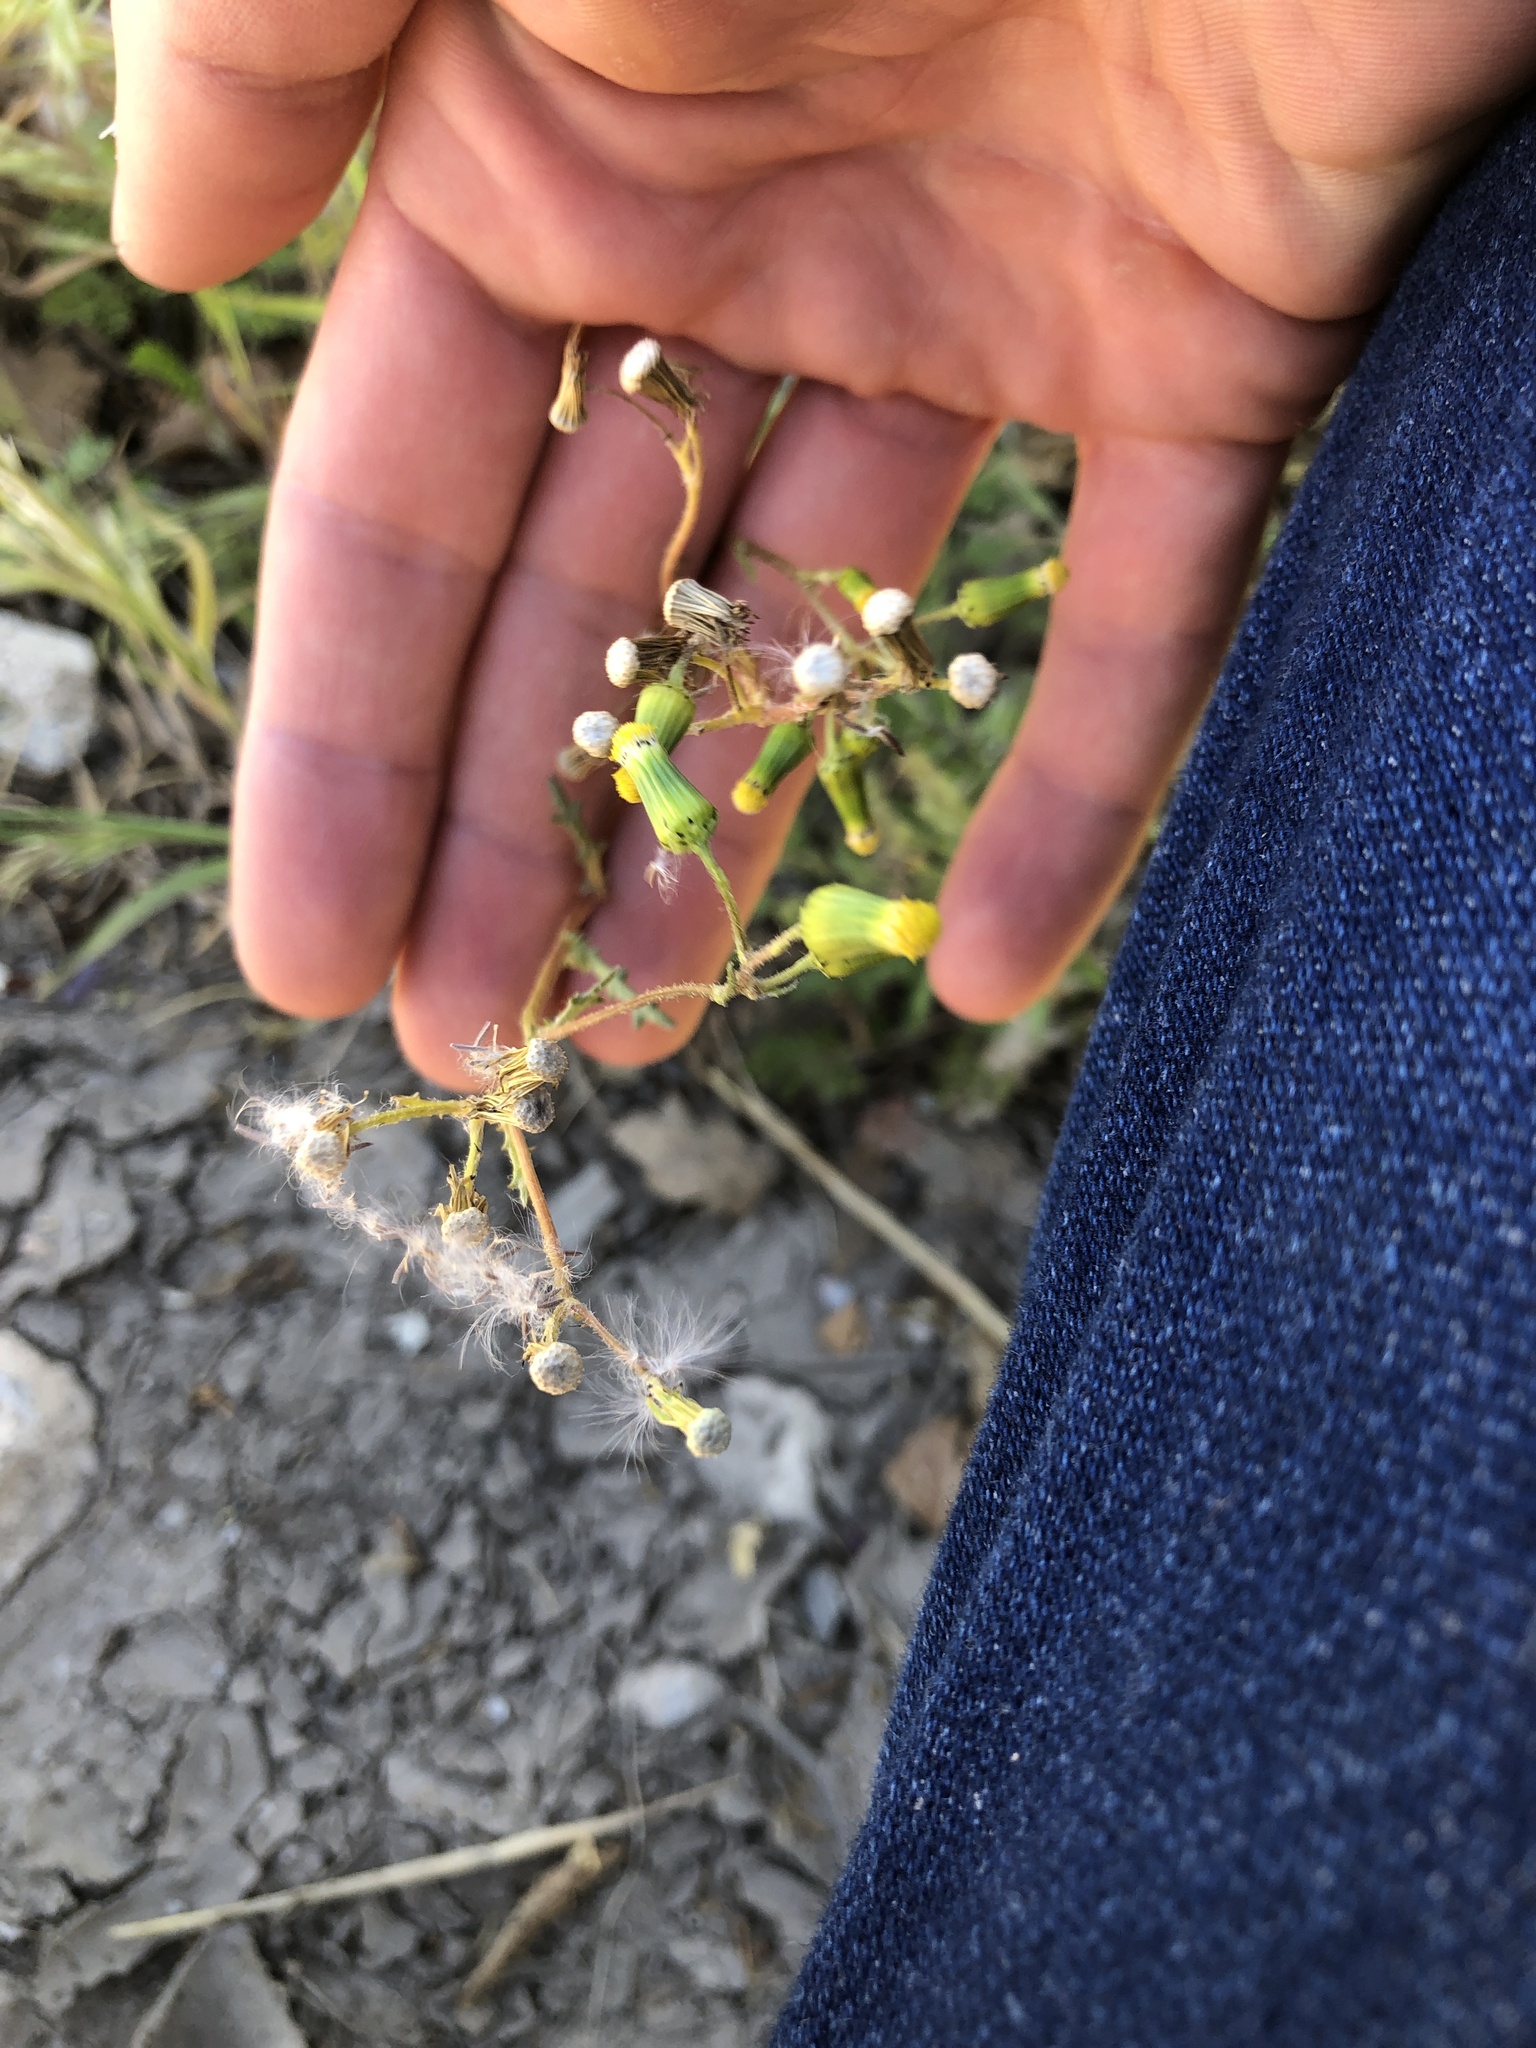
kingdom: Plantae
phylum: Tracheophyta
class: Magnoliopsida
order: Asterales
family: Asteraceae
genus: Senecio
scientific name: Senecio vulgaris
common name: Old-man-in-the-spring
